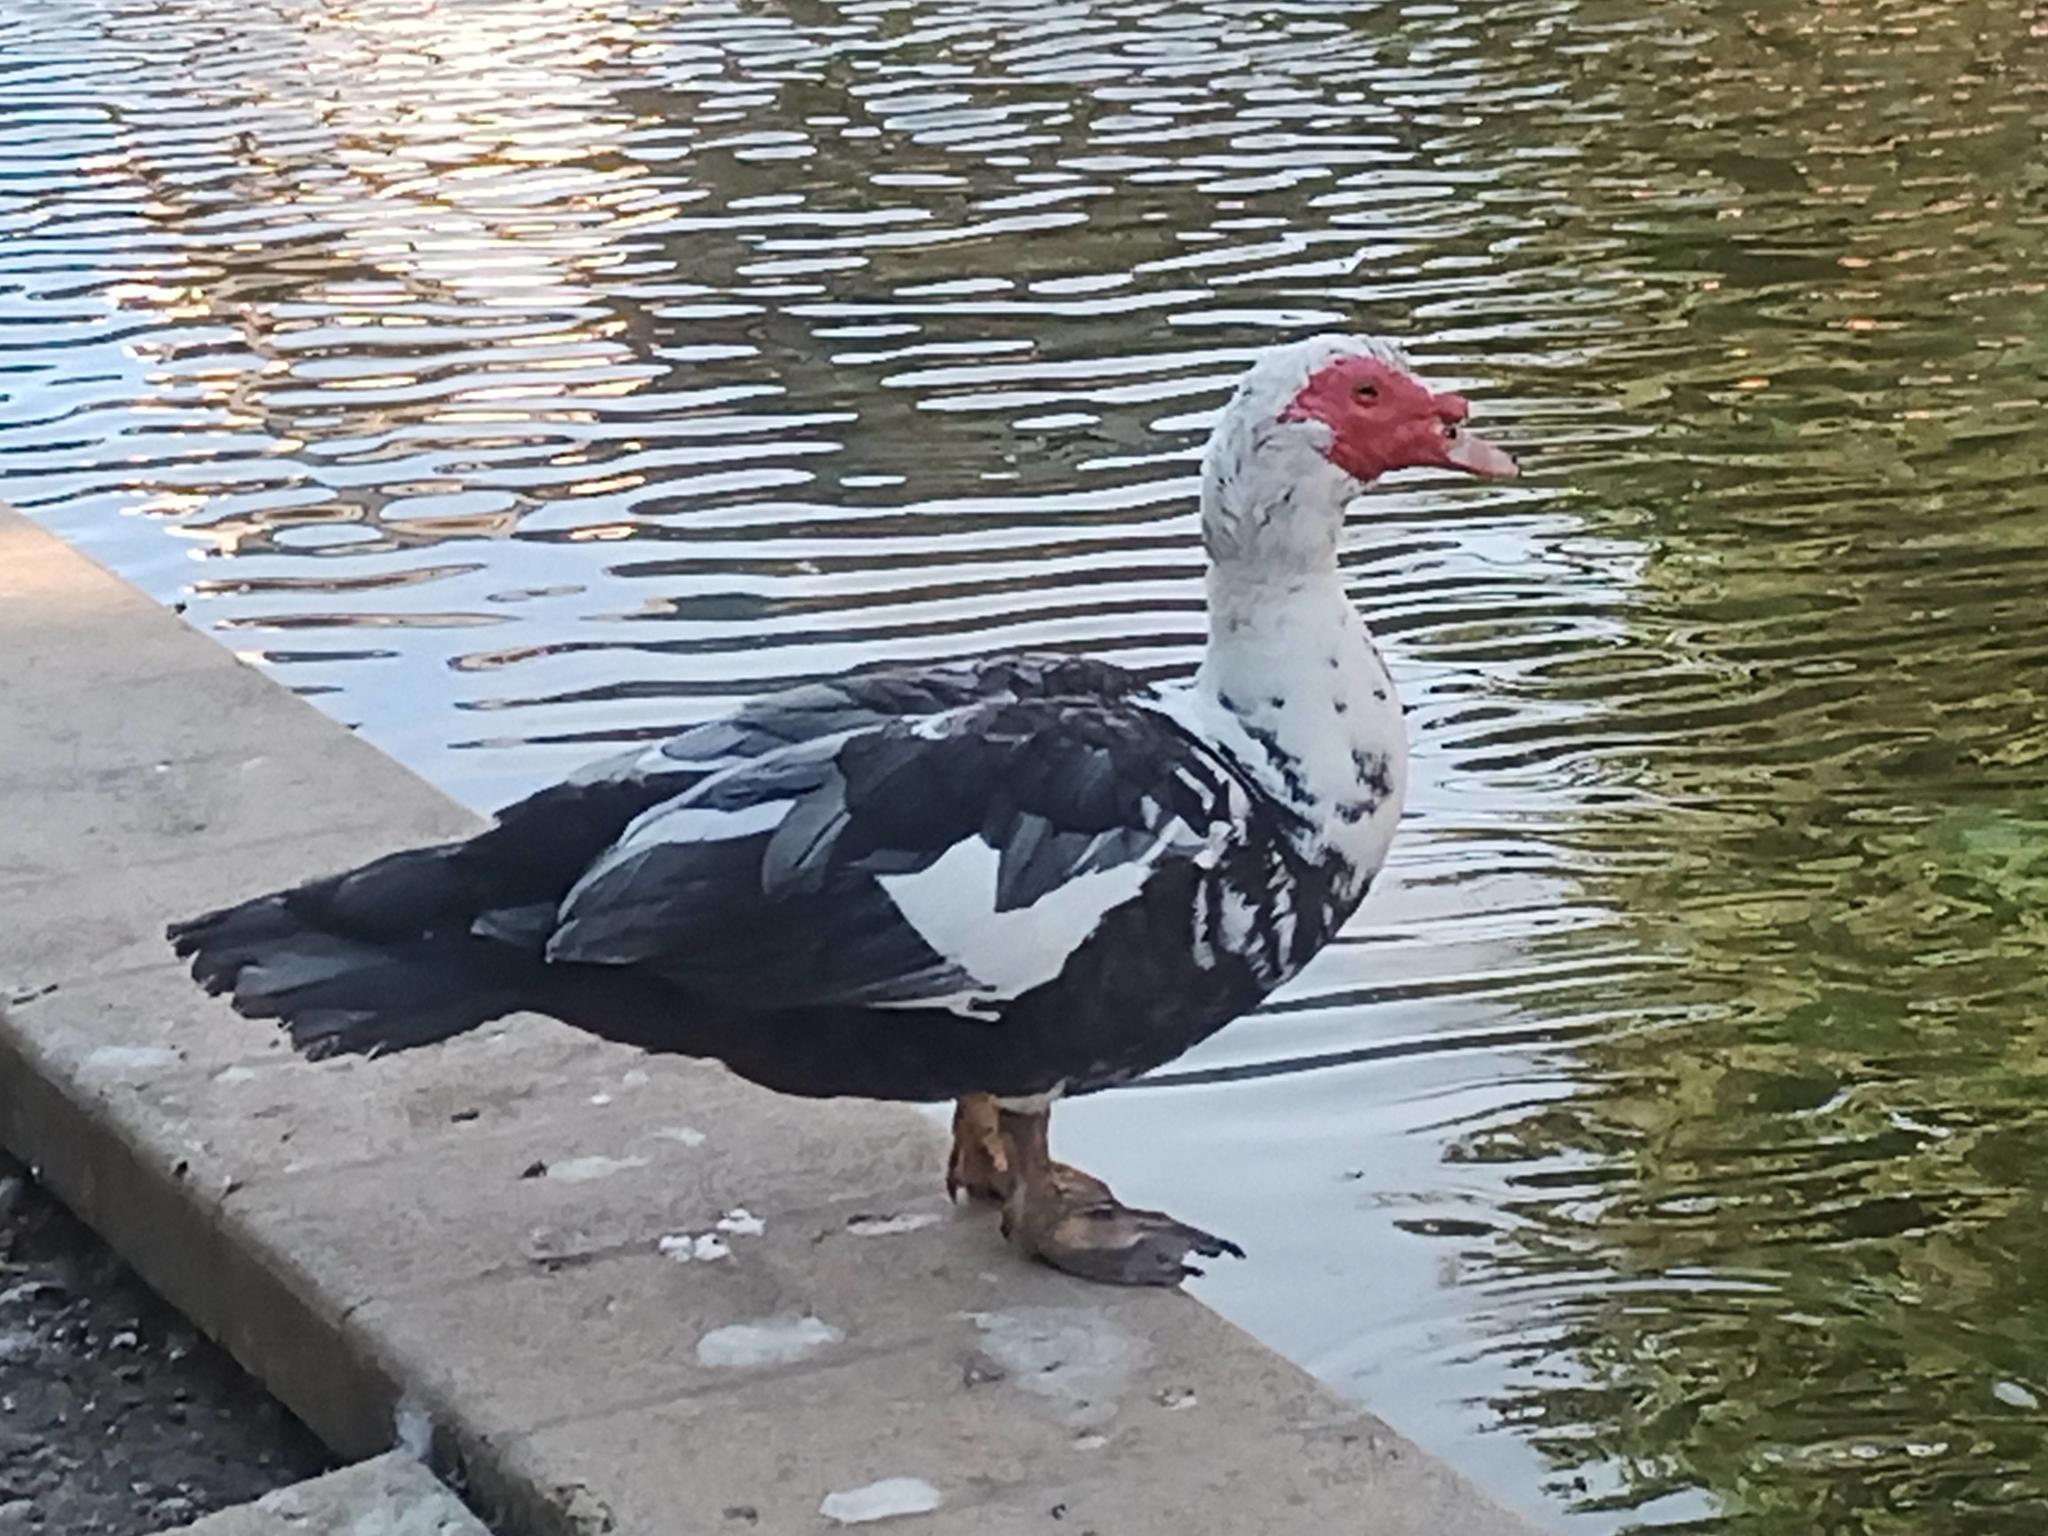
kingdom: Animalia
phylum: Chordata
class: Aves
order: Anseriformes
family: Anatidae
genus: Cairina
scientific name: Cairina moschata
